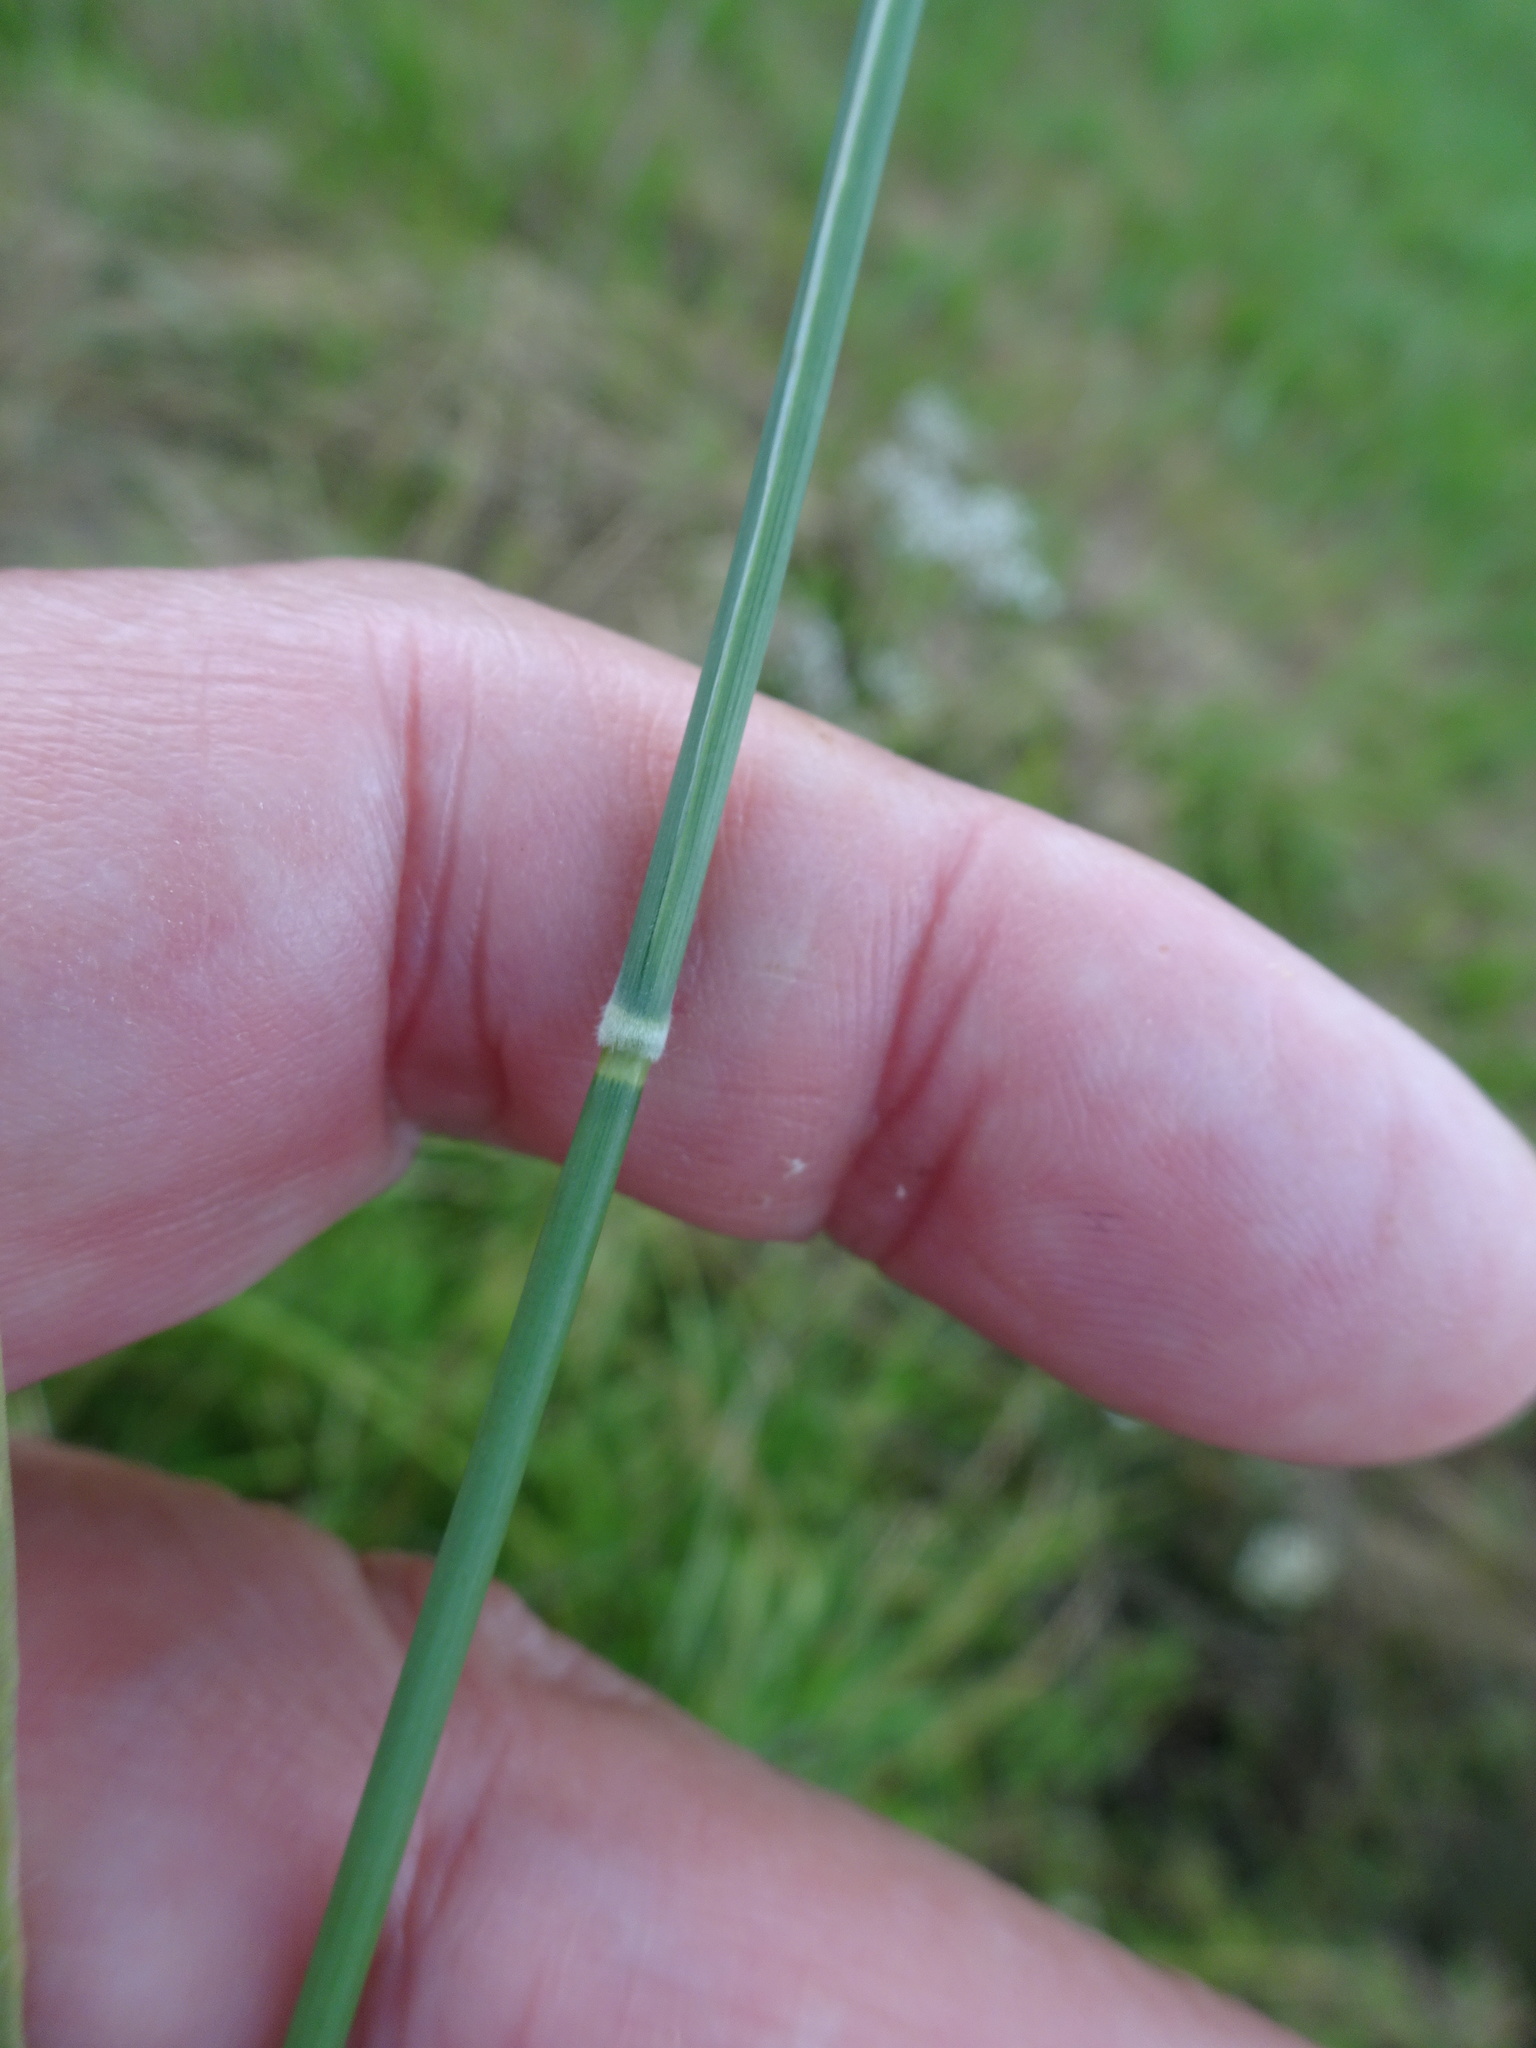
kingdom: Plantae
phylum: Tracheophyta
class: Liliopsida
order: Poales
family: Poaceae
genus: Holcus
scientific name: Holcus mollis
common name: Creeping velvetgrass
